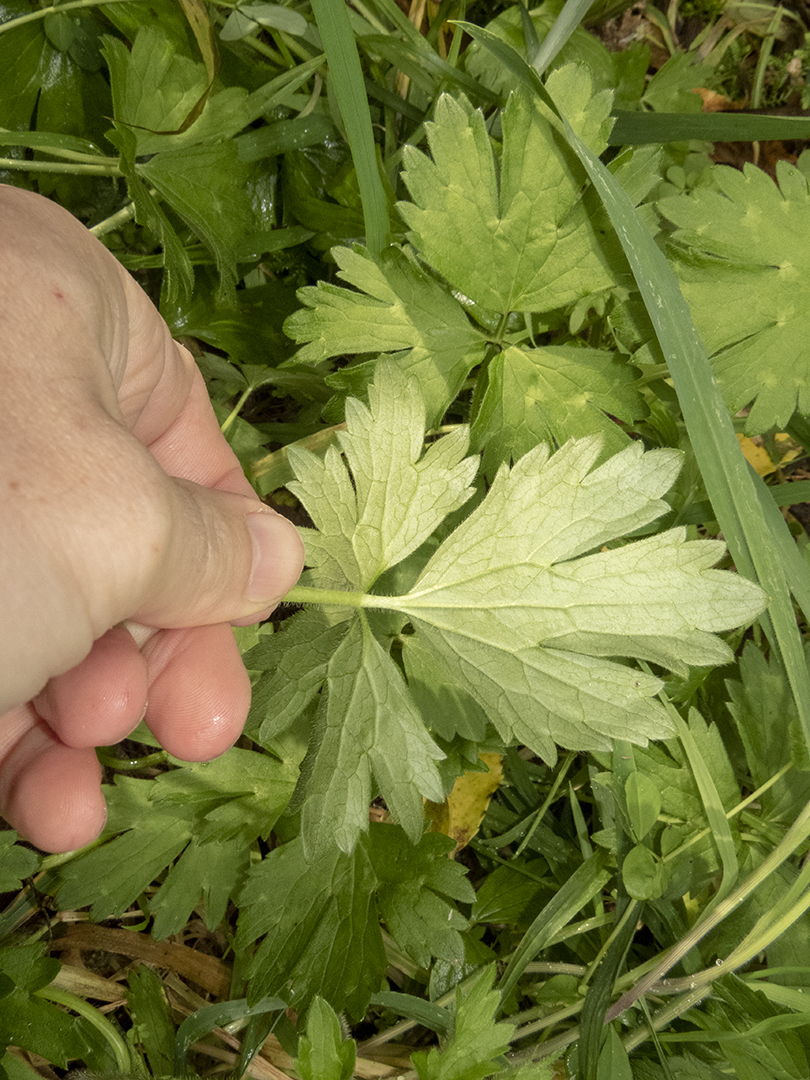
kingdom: Plantae
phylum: Tracheophyta
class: Magnoliopsida
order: Ranunculales
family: Ranunculaceae
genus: Ranunculus
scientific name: Ranunculus repens
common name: Creeping buttercup
